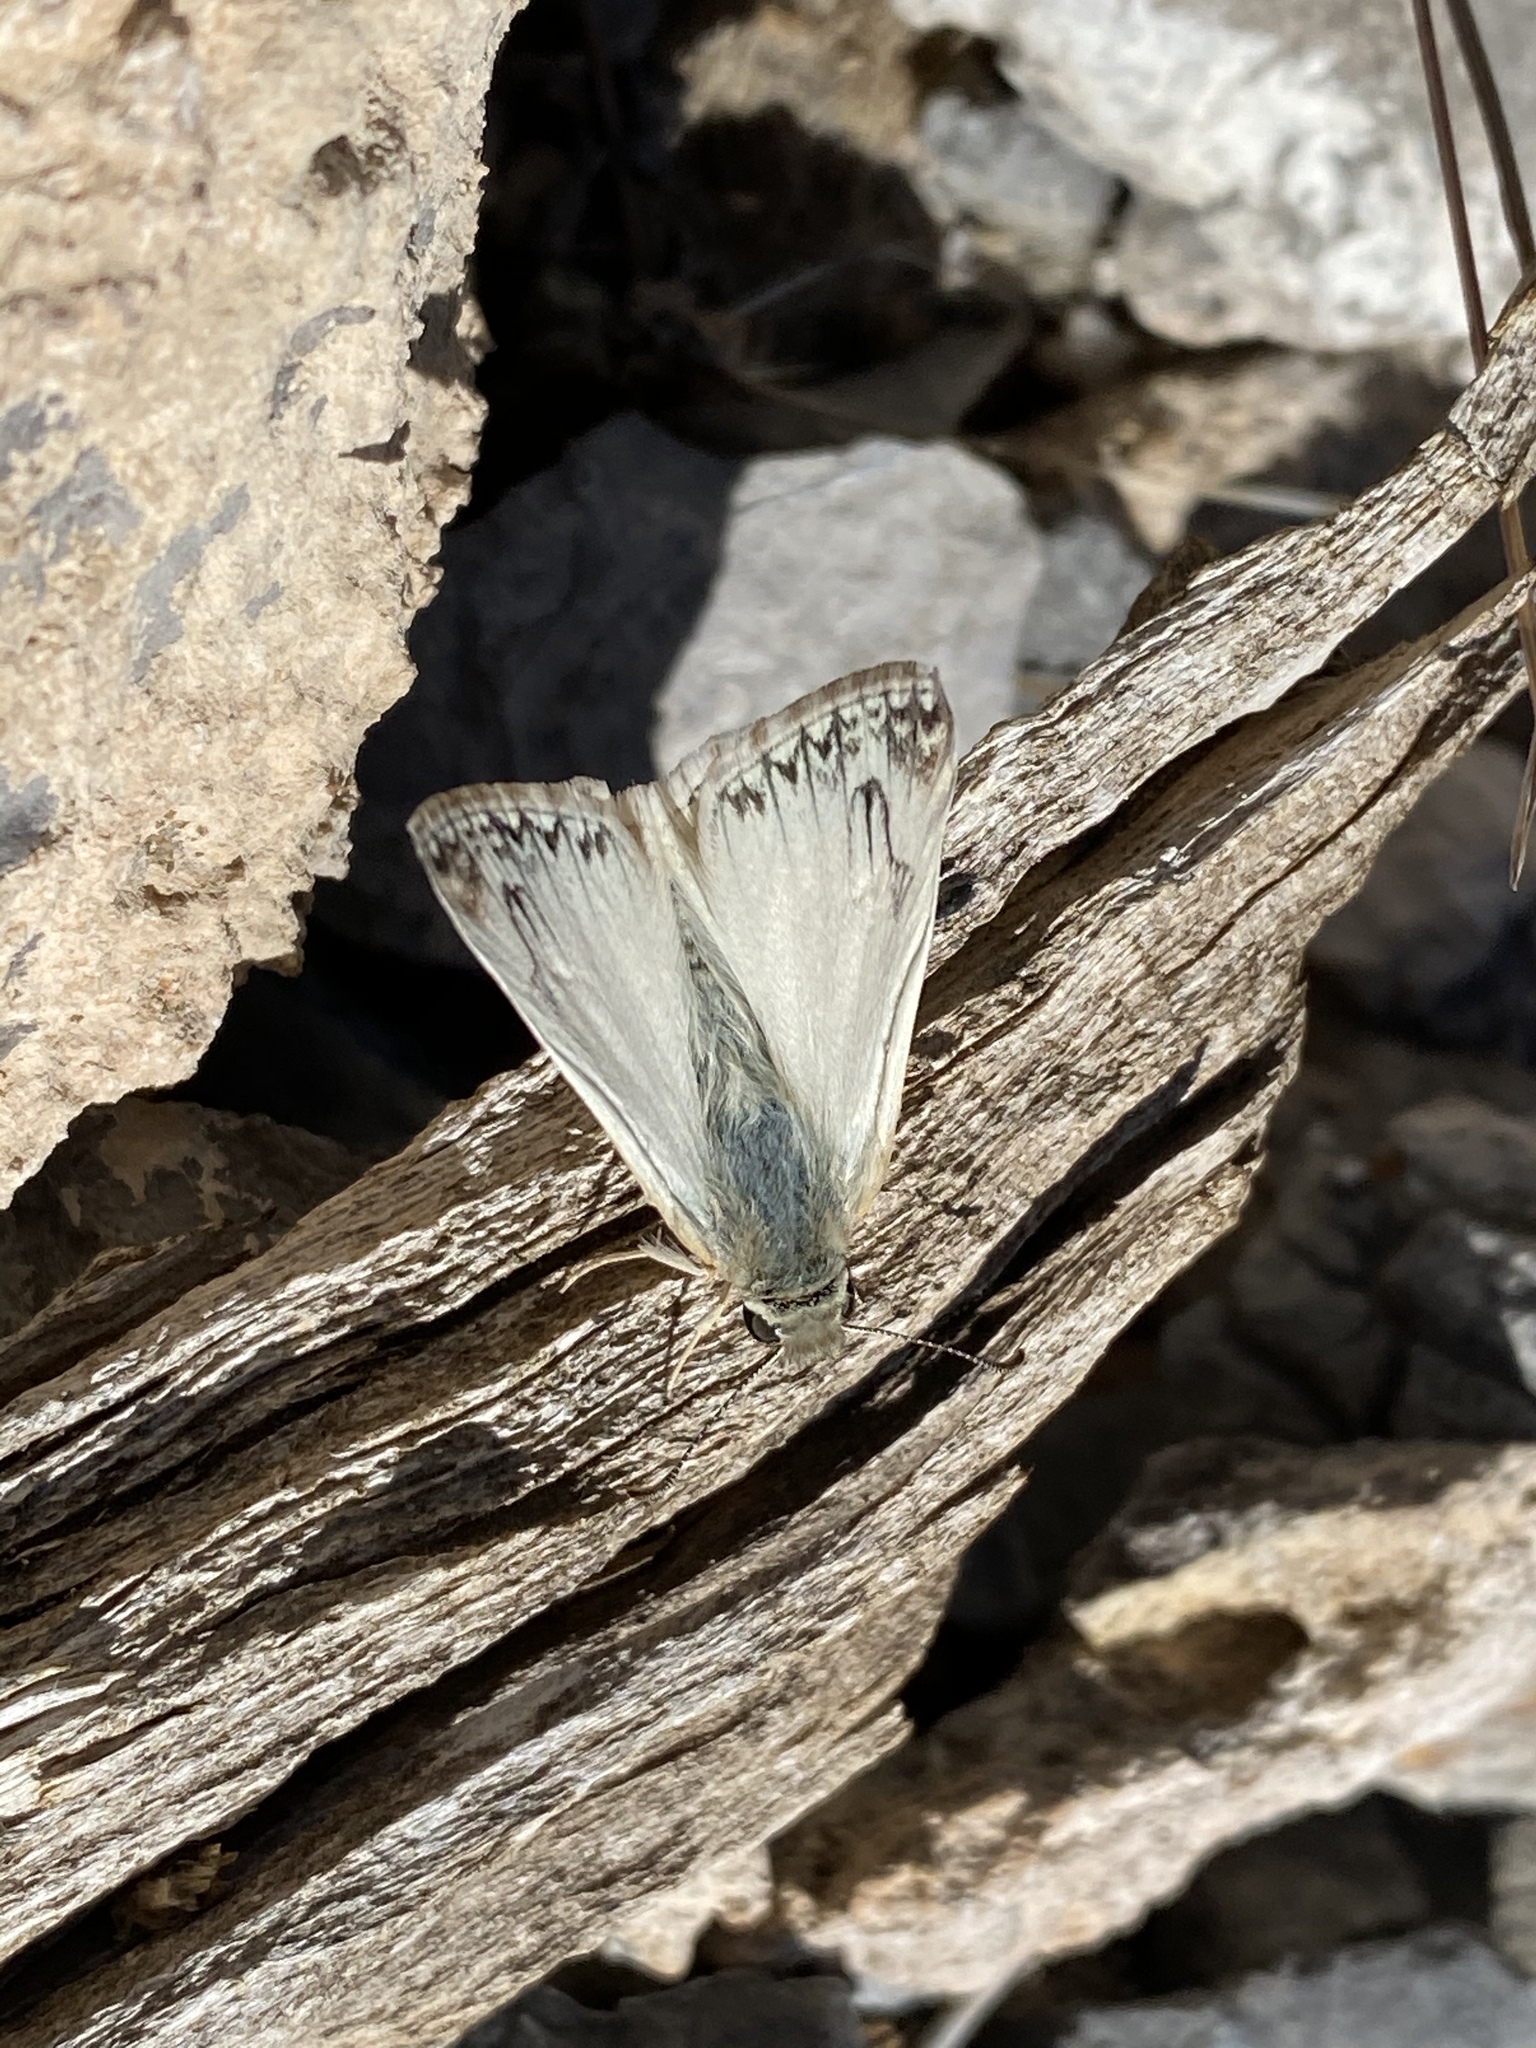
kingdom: Animalia
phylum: Arthropoda
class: Insecta
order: Lepidoptera
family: Hesperiidae
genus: Heliopetes
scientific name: Heliopetes ericetorum
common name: Northern white-skipper
